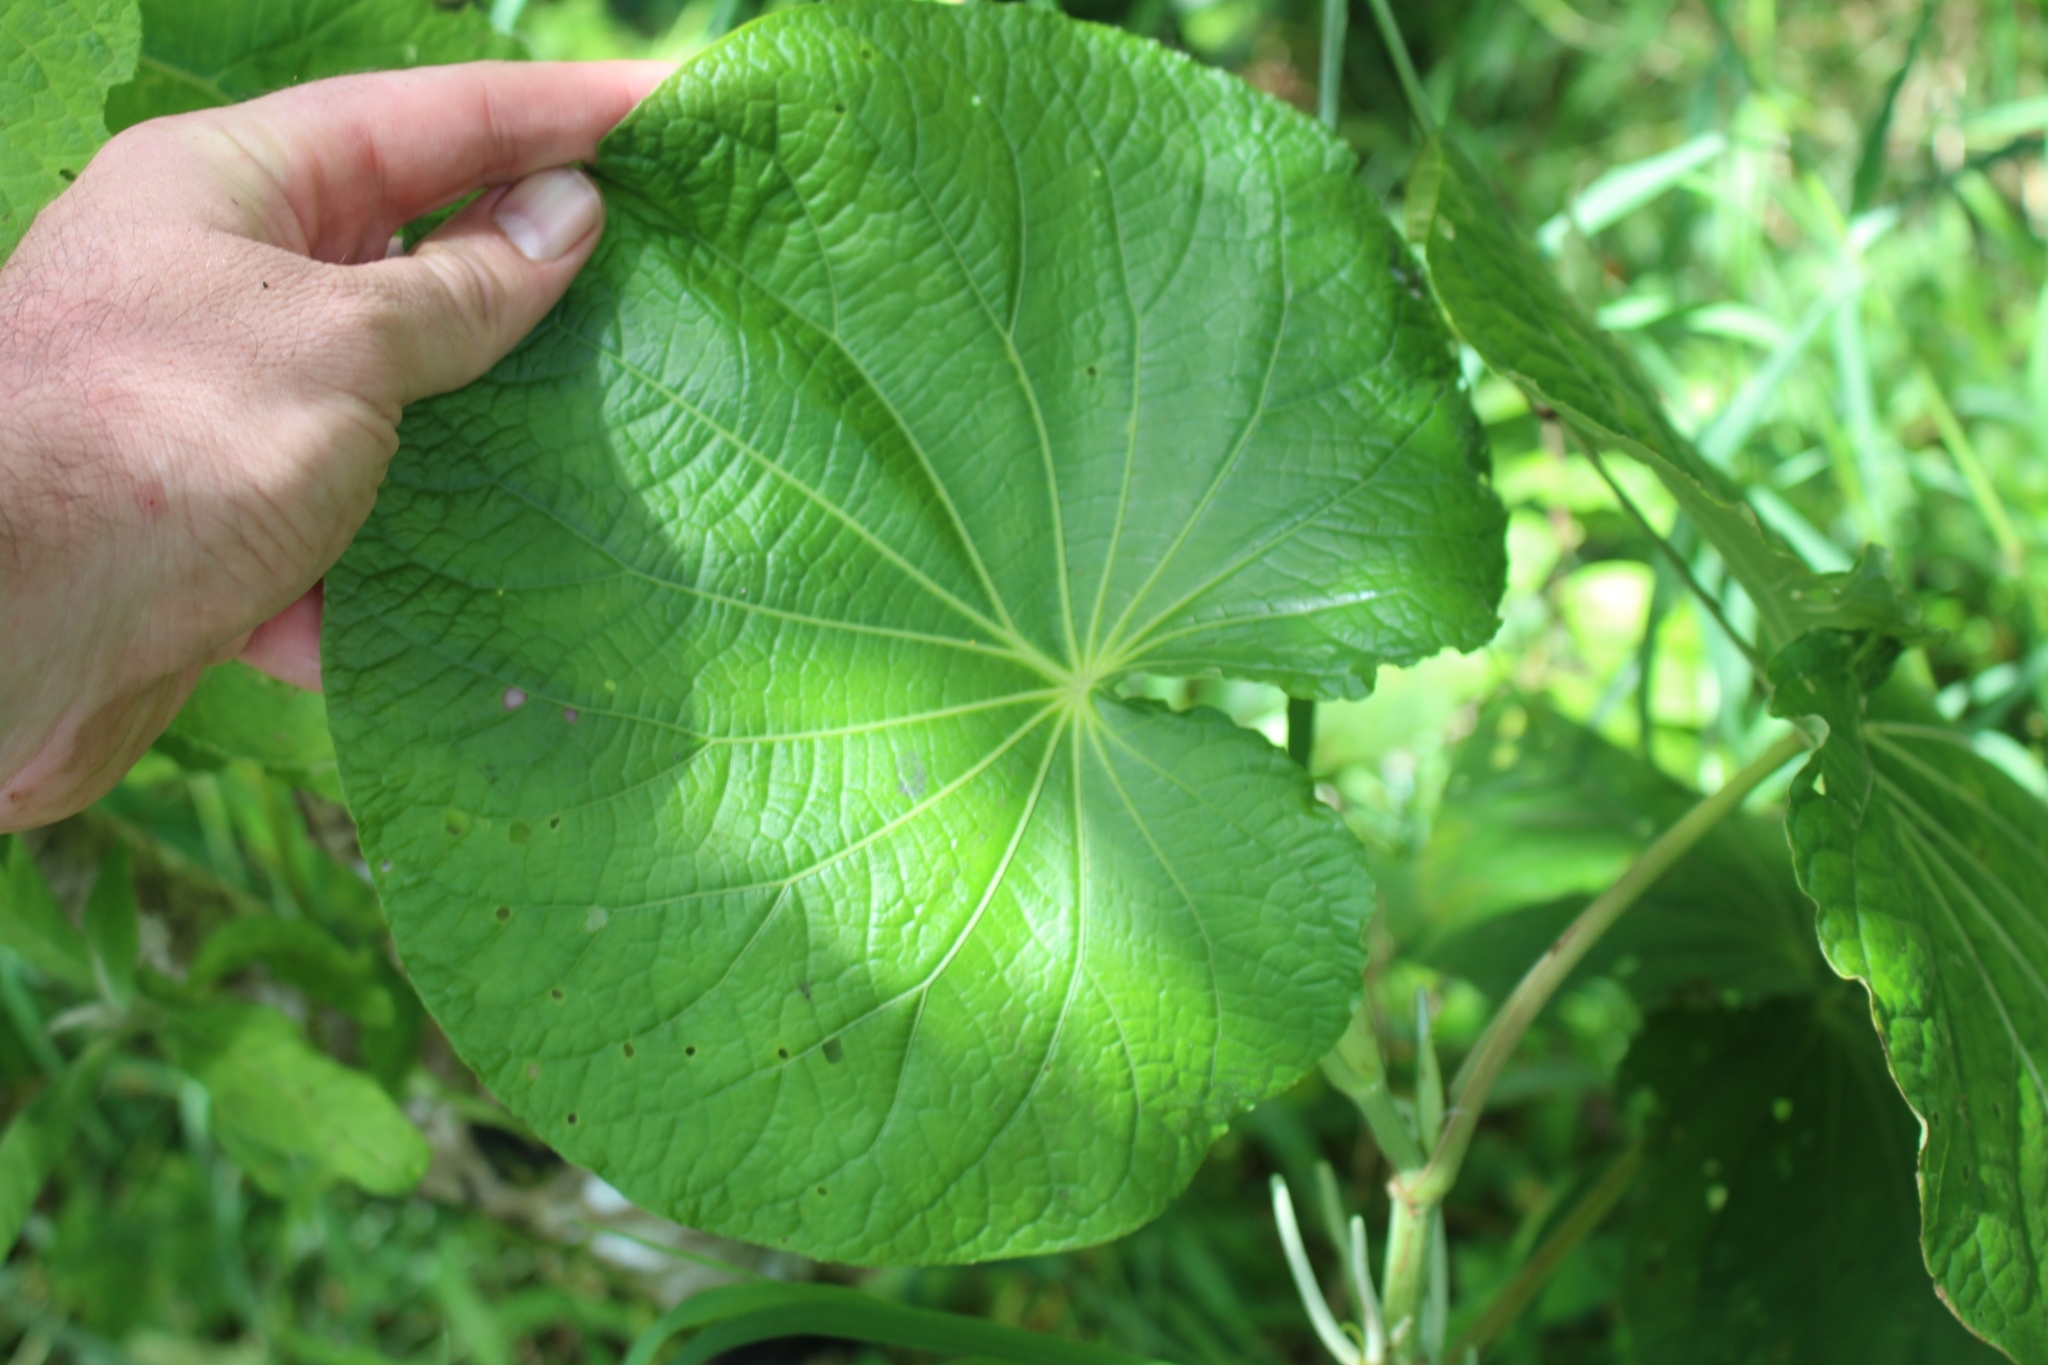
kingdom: Plantae
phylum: Tracheophyta
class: Magnoliopsida
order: Piperales
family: Piperaceae
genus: Piper
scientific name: Piper umbellatum
